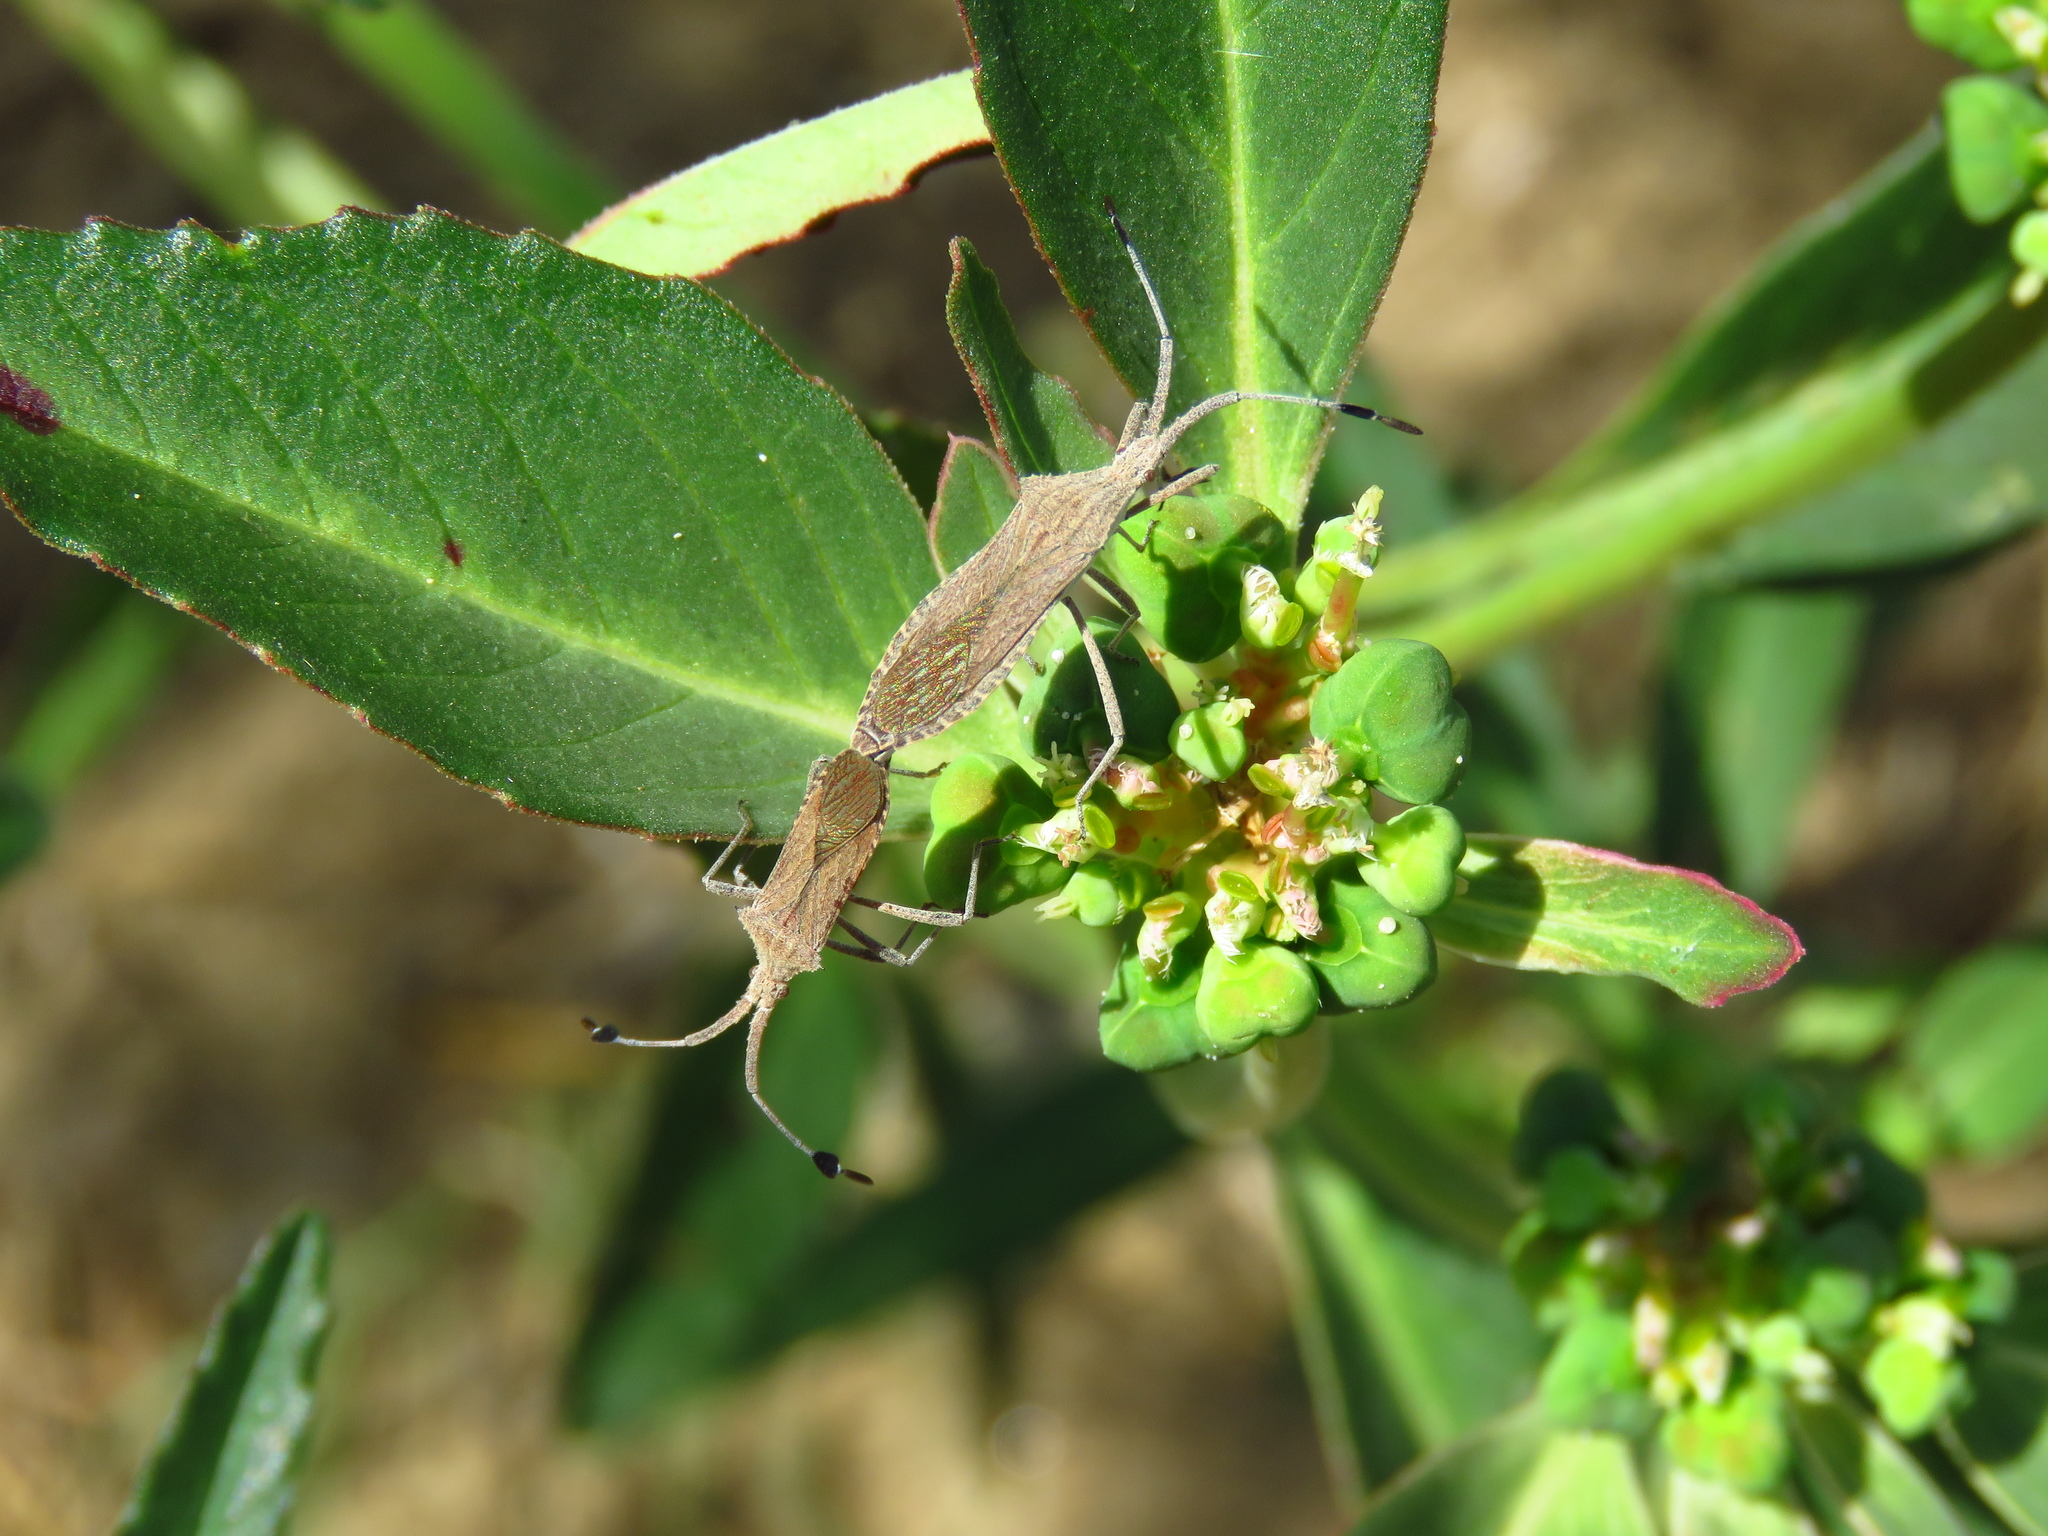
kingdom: Plantae
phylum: Tracheophyta
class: Magnoliopsida
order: Malpighiales
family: Euphorbiaceae
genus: Euphorbia
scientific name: Euphorbia davidii
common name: David's spurge
